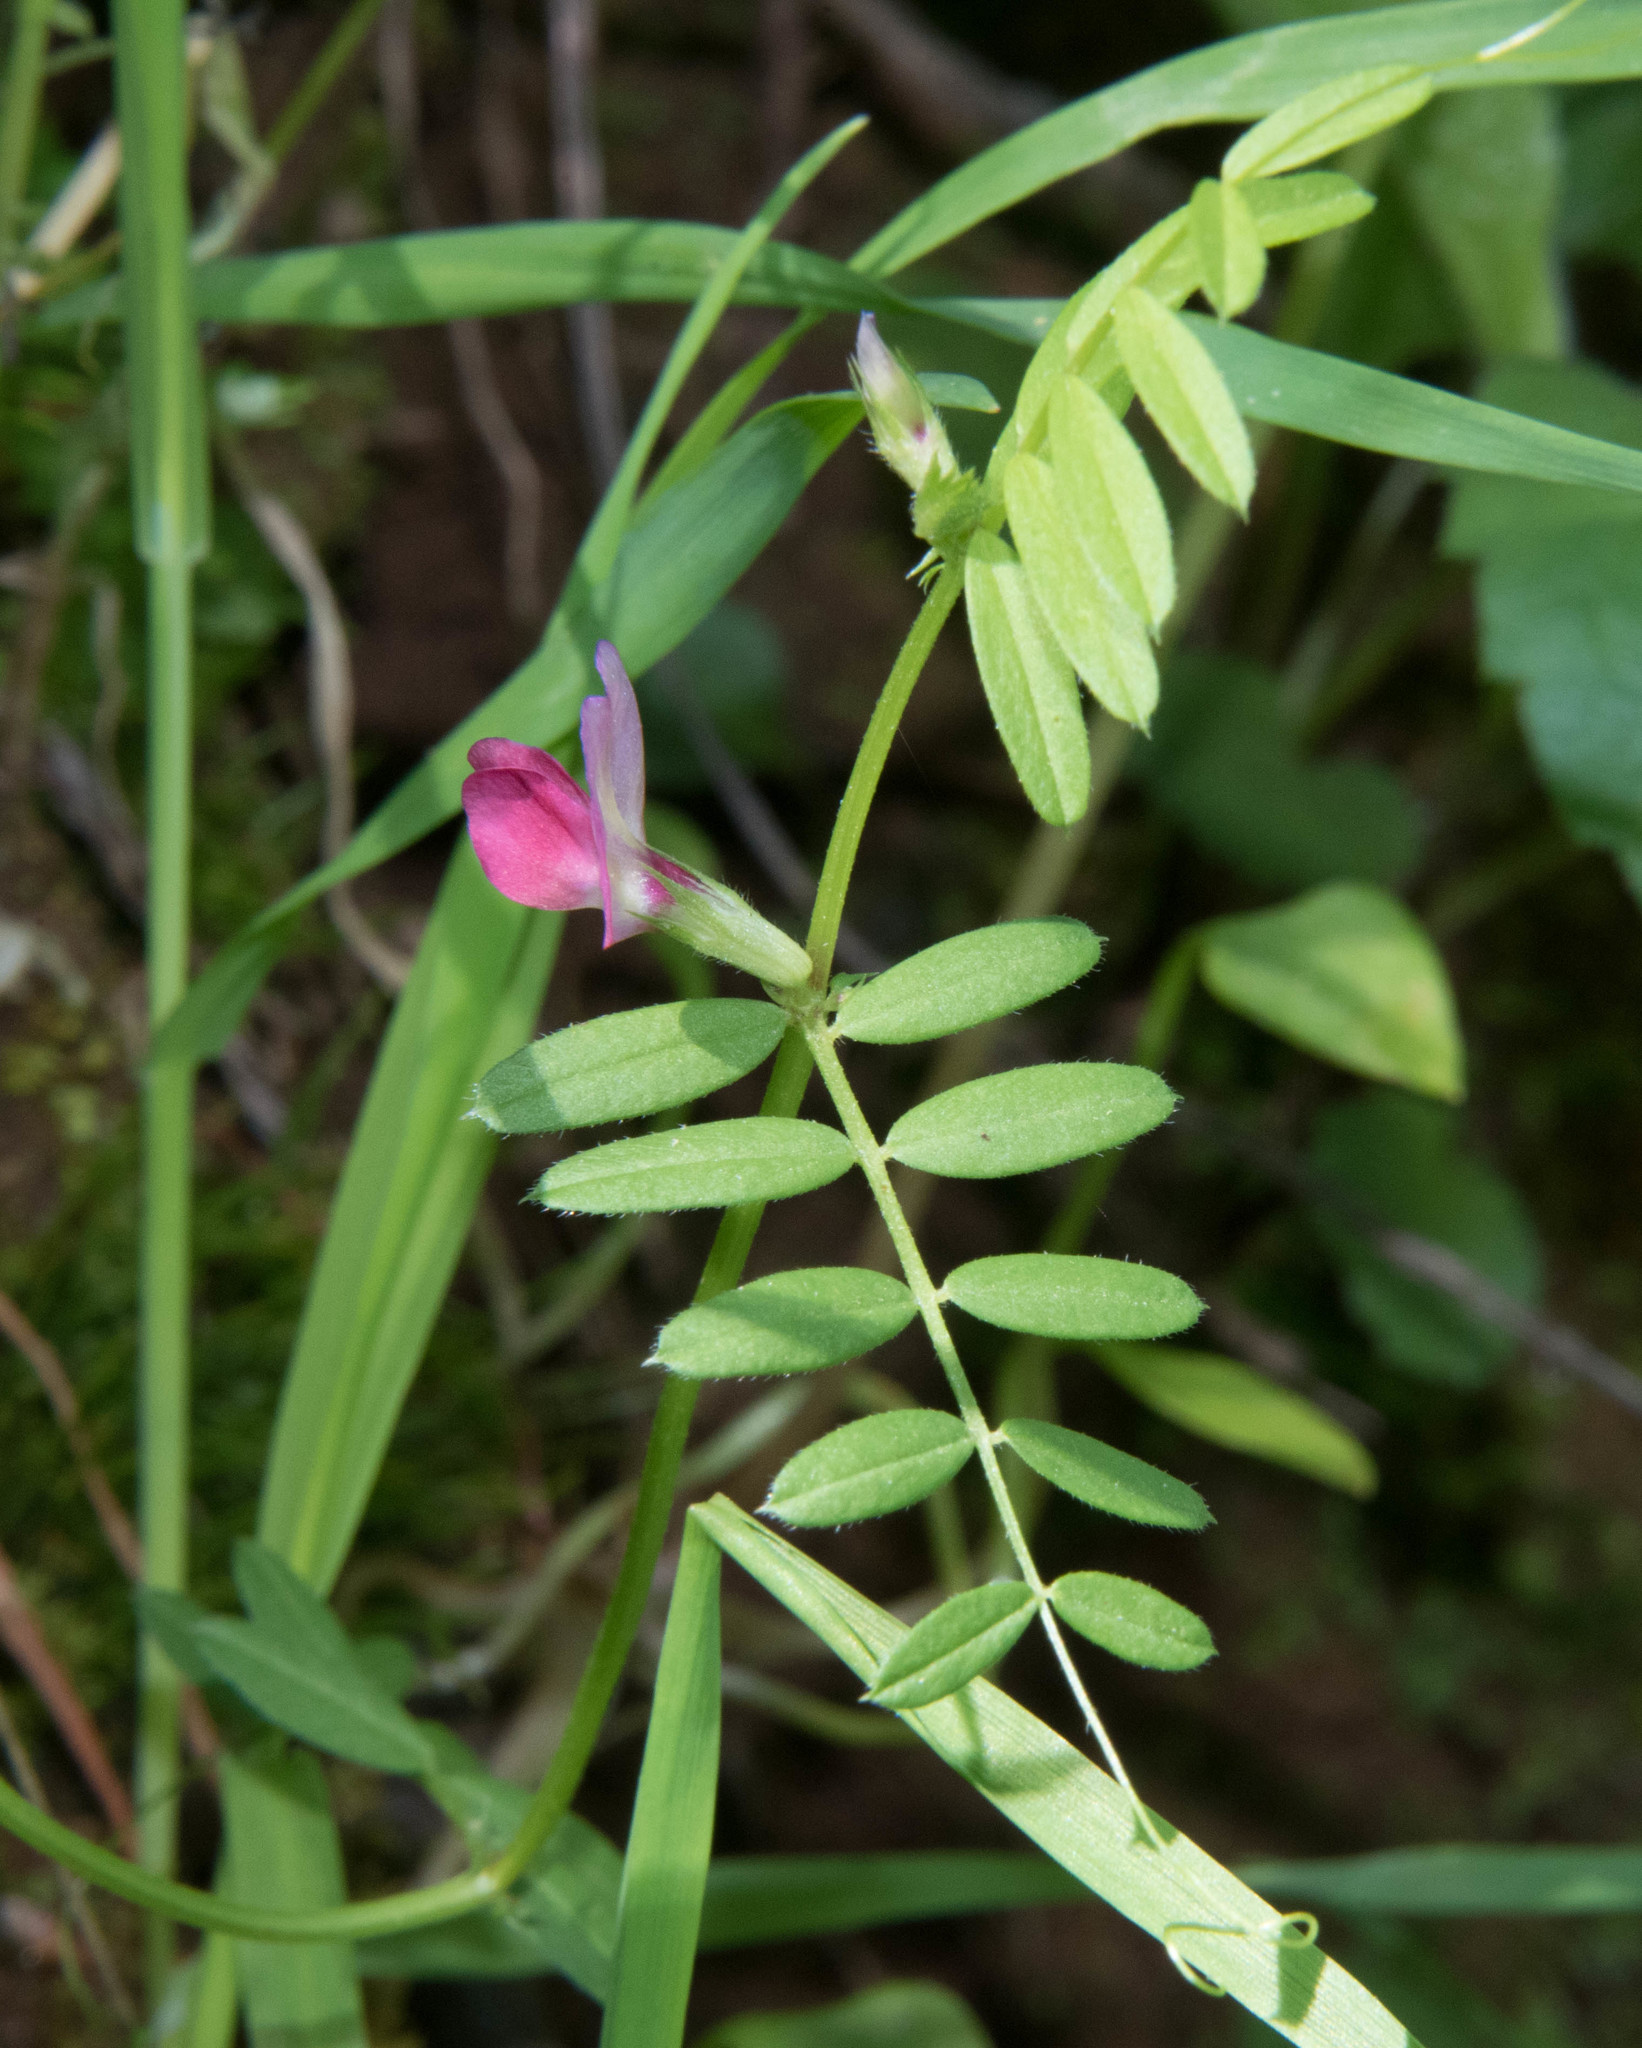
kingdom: Plantae
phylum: Tracheophyta
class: Magnoliopsida
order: Fabales
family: Fabaceae
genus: Vicia
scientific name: Vicia sativa
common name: Garden vetch
